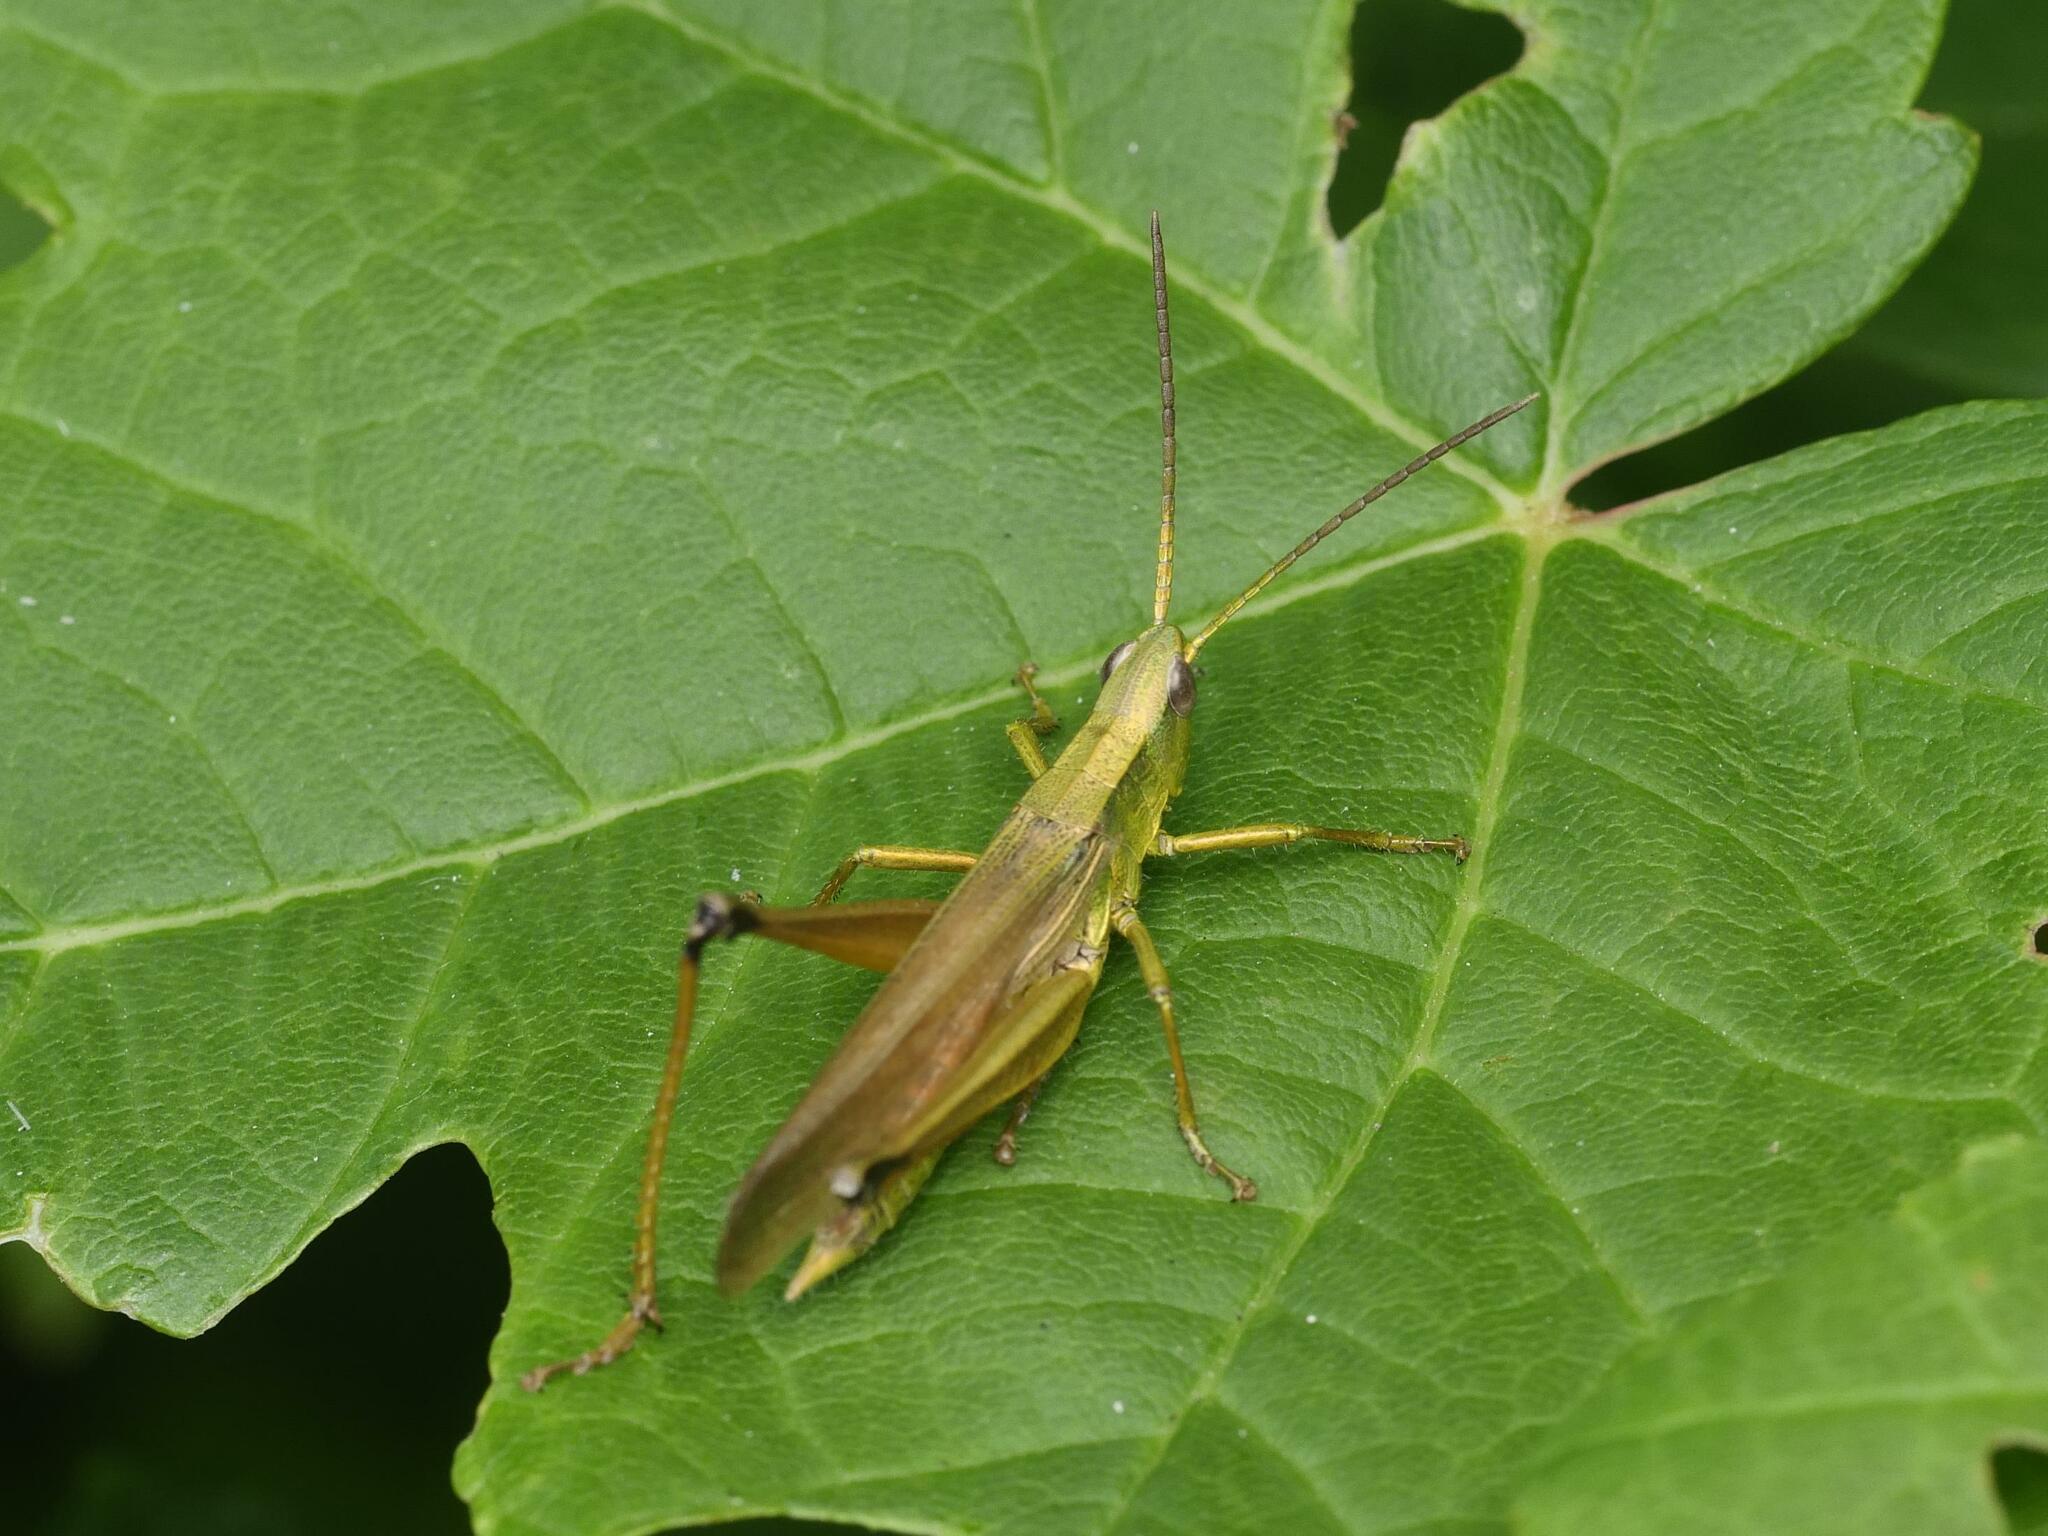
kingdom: Animalia
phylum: Arthropoda
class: Insecta
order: Orthoptera
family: Acrididae
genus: Chrysochraon
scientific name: Chrysochraon dispar
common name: Large gold grasshopper
